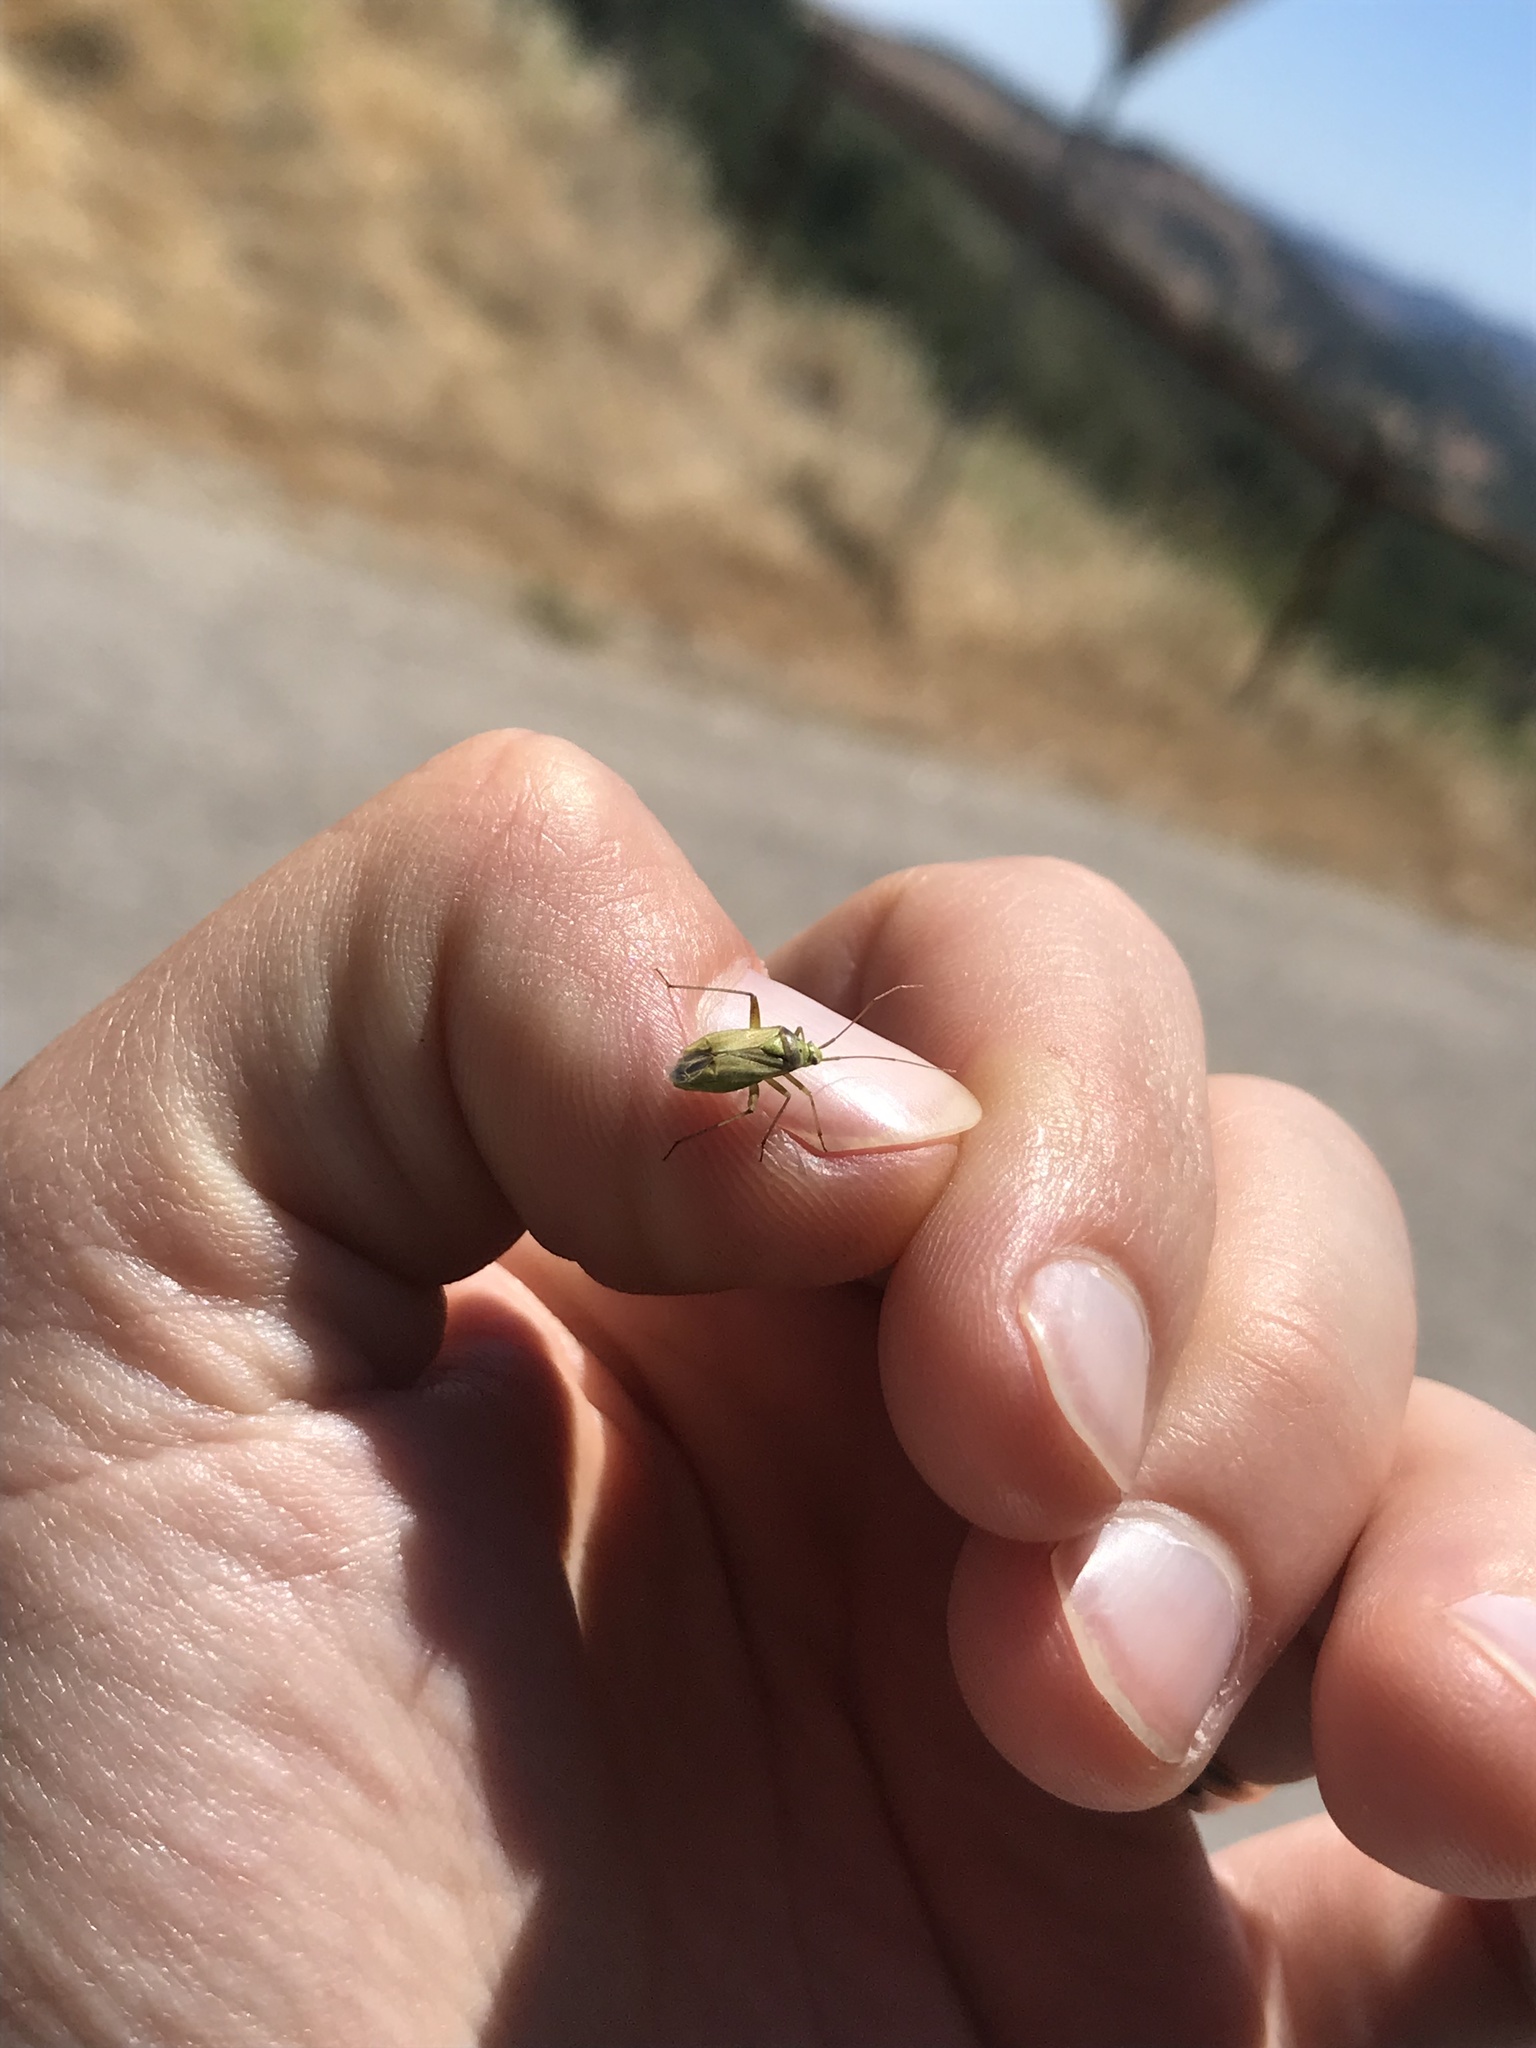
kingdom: Animalia
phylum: Arthropoda
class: Insecta
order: Hemiptera
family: Miridae
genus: Closterotomus
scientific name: Closterotomus norvegicus
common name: Plant bug
